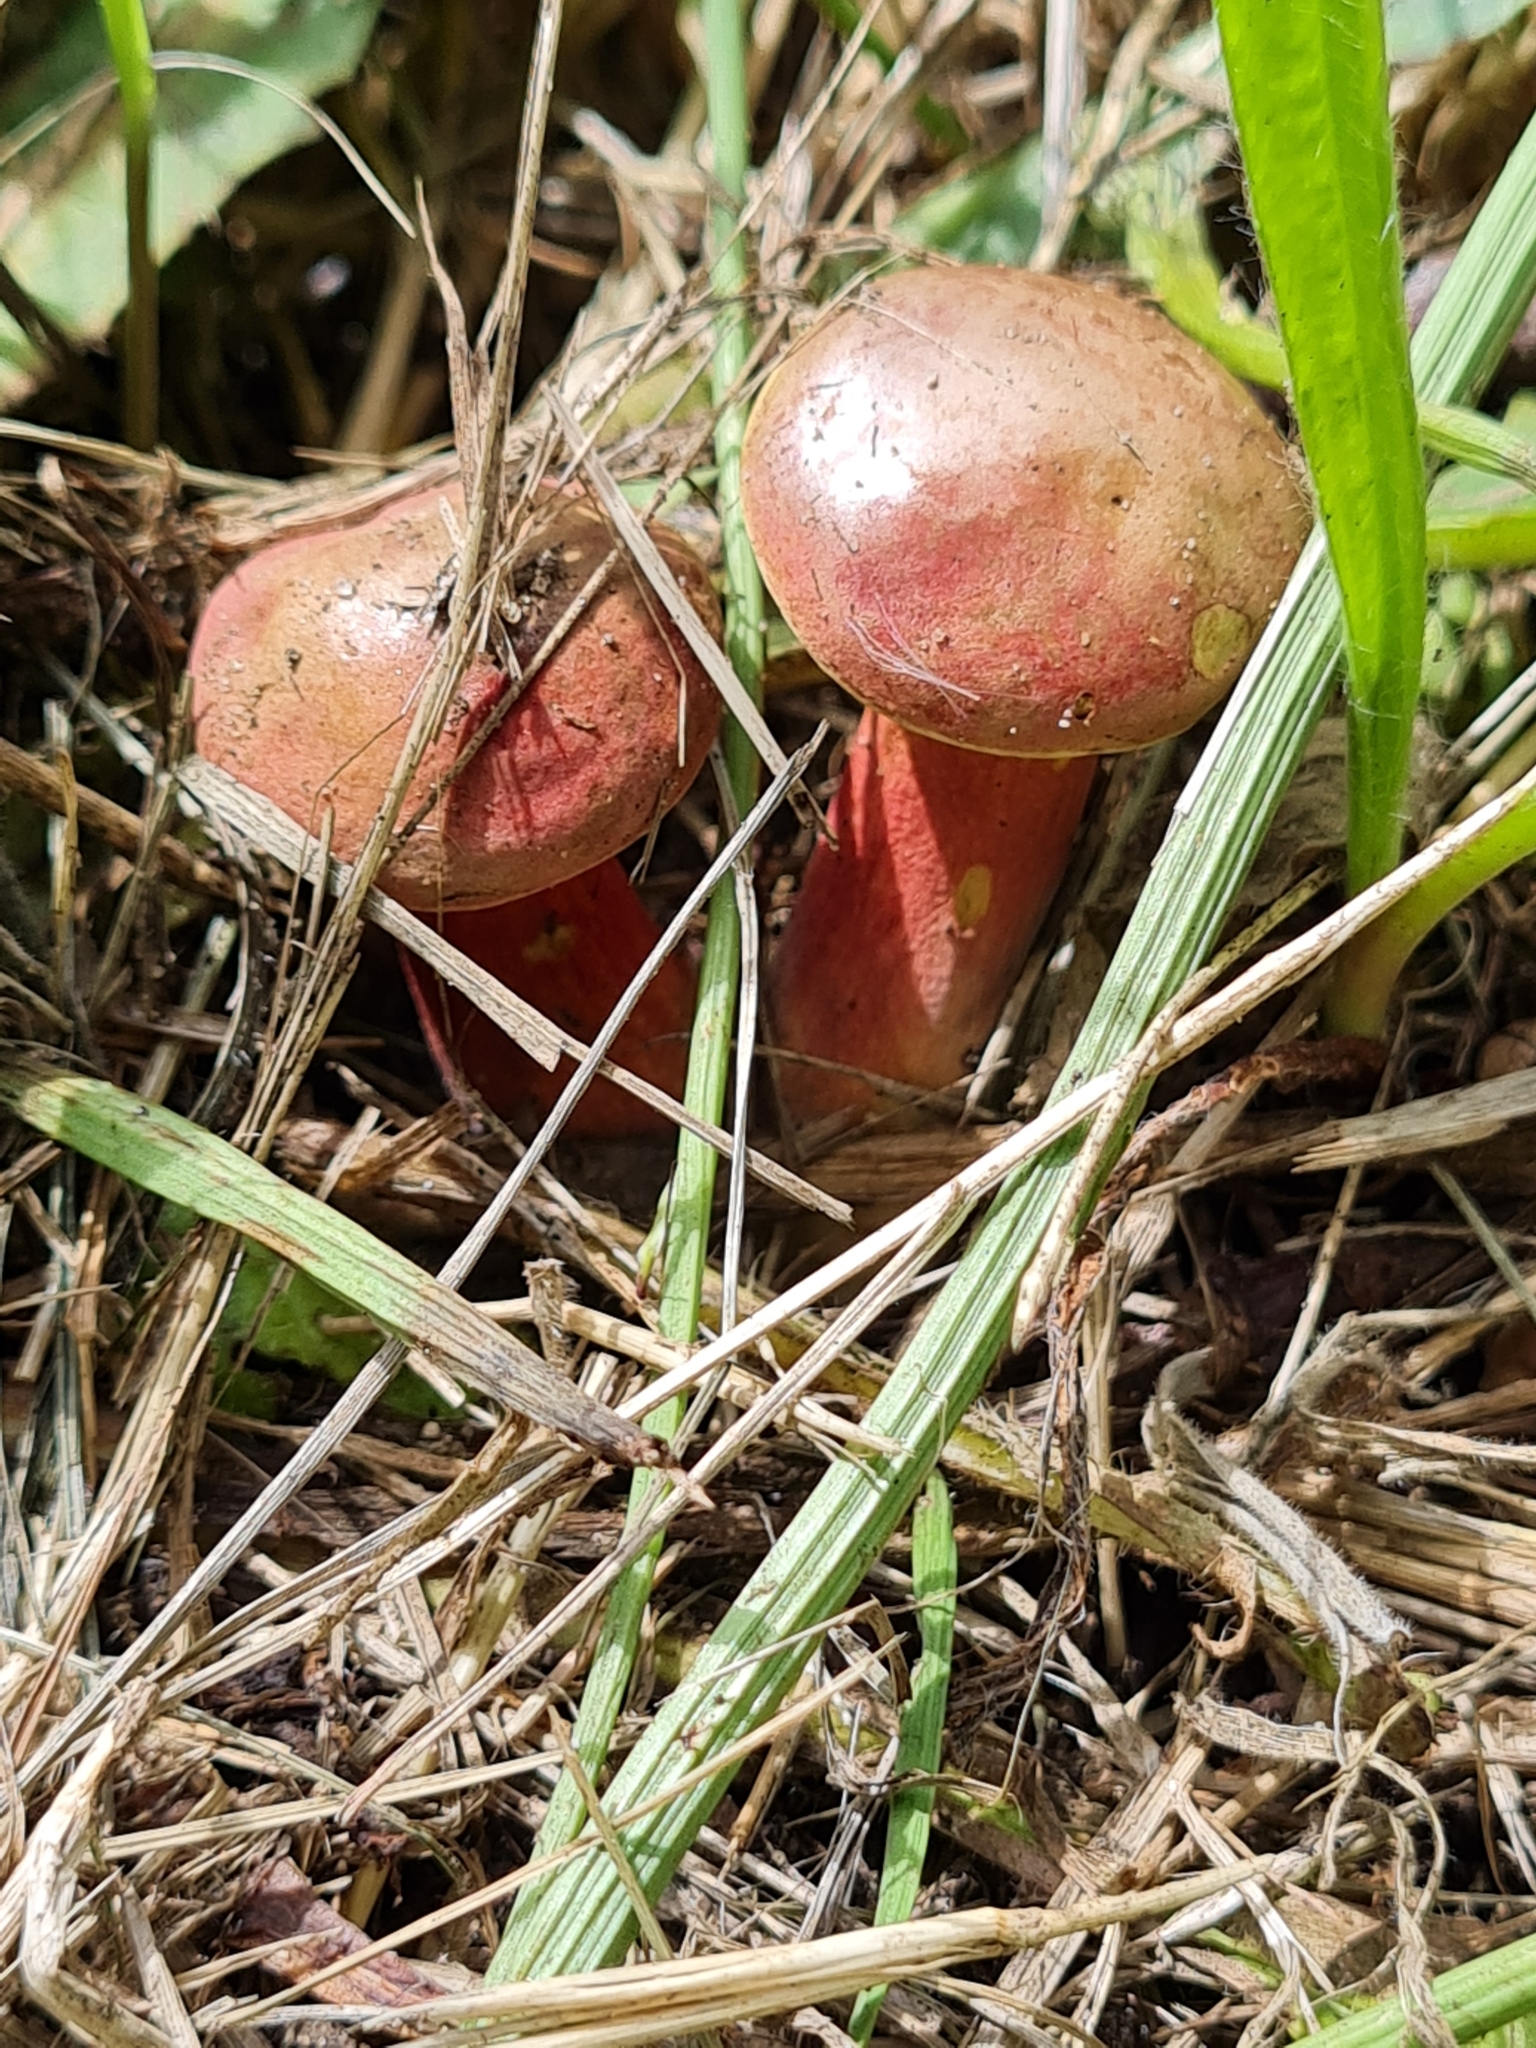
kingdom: Fungi
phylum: Basidiomycota
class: Agaricomycetes
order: Boletales
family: Boletaceae
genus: Hortiboletus
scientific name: Hortiboletus rubellus
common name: Ruby bolete
